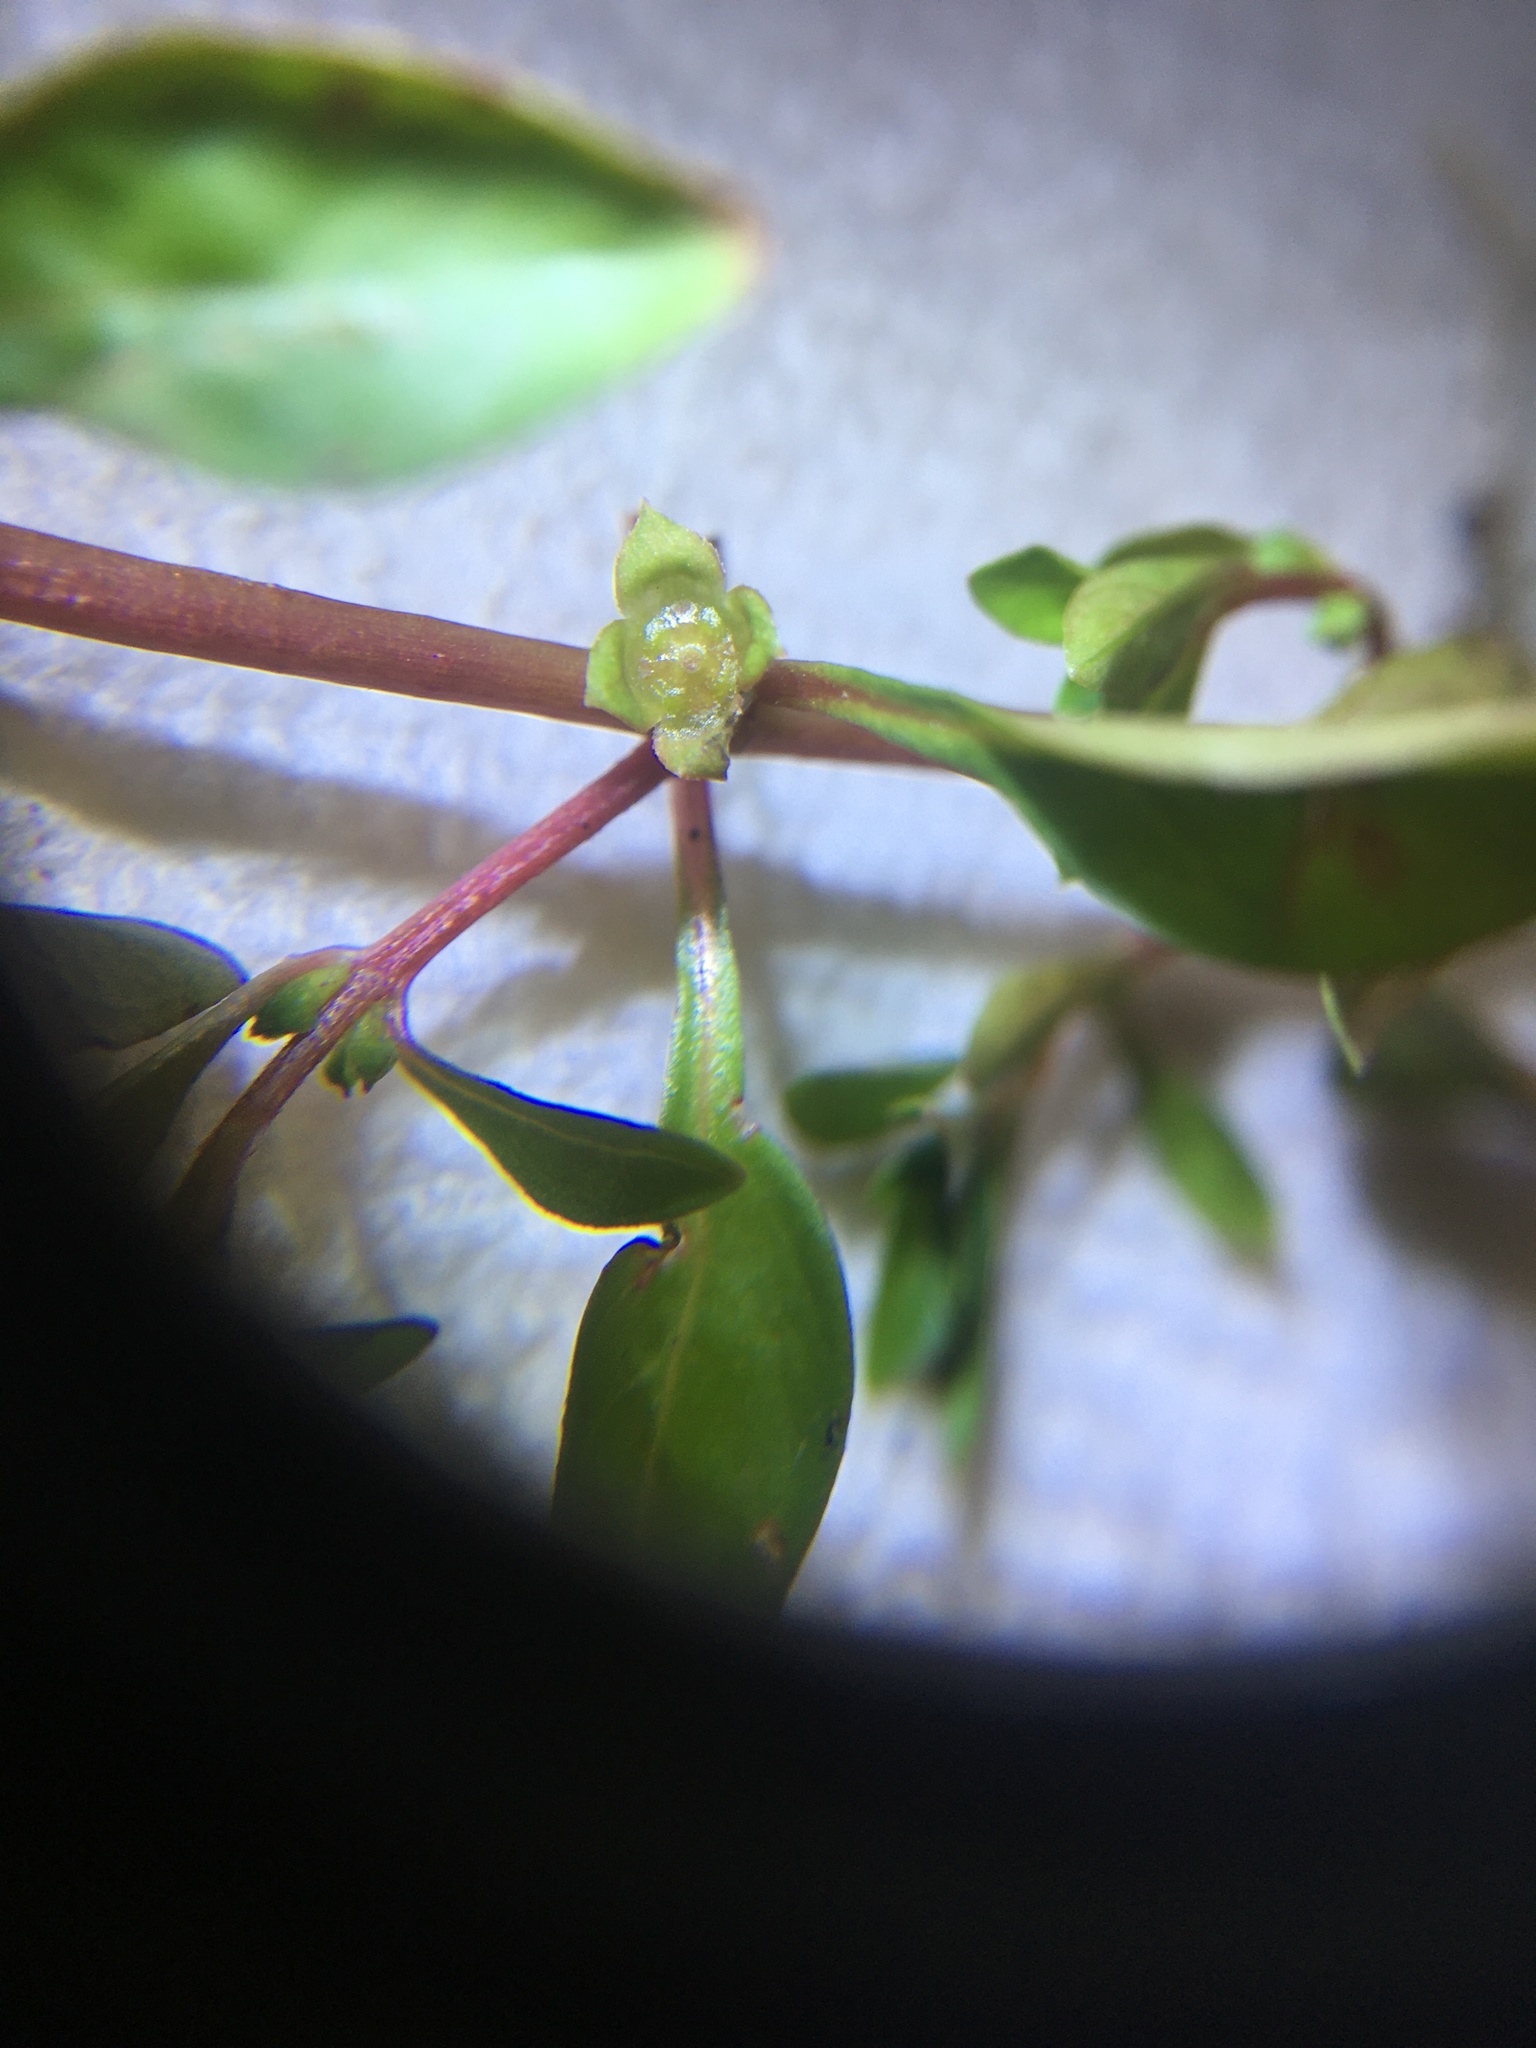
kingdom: Plantae
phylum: Tracheophyta
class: Magnoliopsida
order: Myrtales
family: Onagraceae
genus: Ludwigia
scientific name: Ludwigia palustris
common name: Hampshire-purslane
